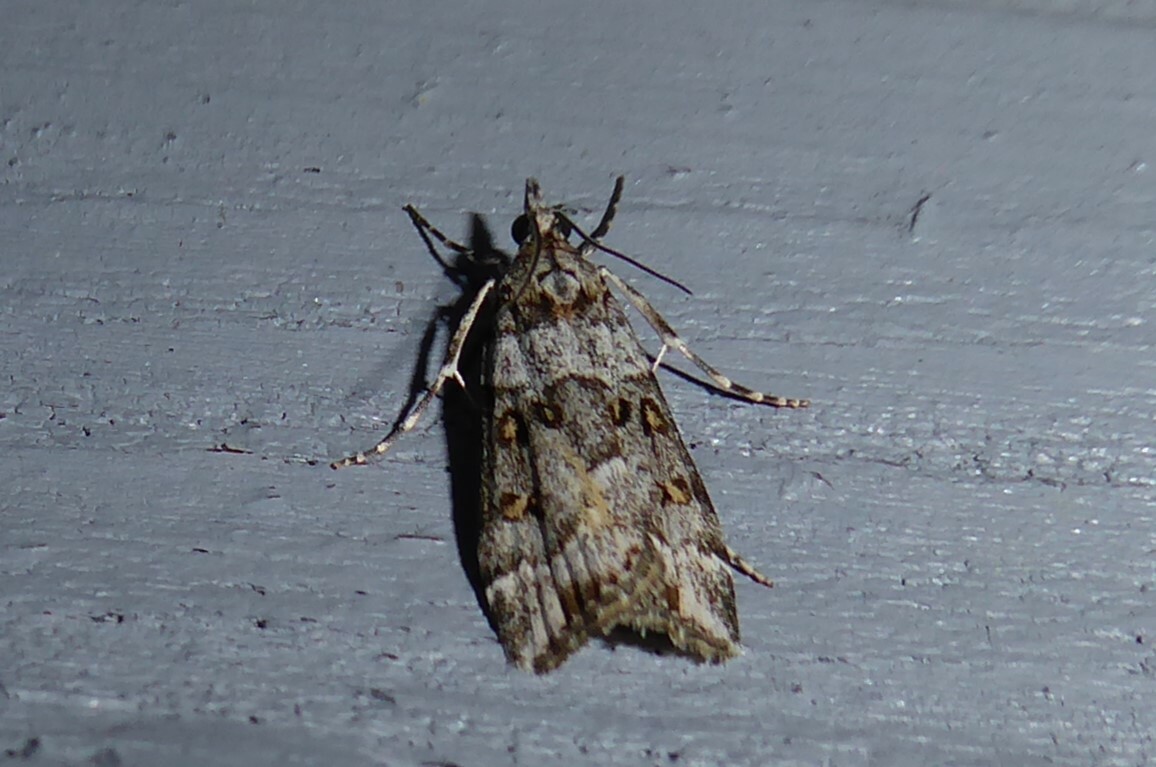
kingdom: Animalia
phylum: Arthropoda
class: Insecta
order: Lepidoptera
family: Crambidae
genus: Scoparia
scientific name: Scoparia tetracycla
